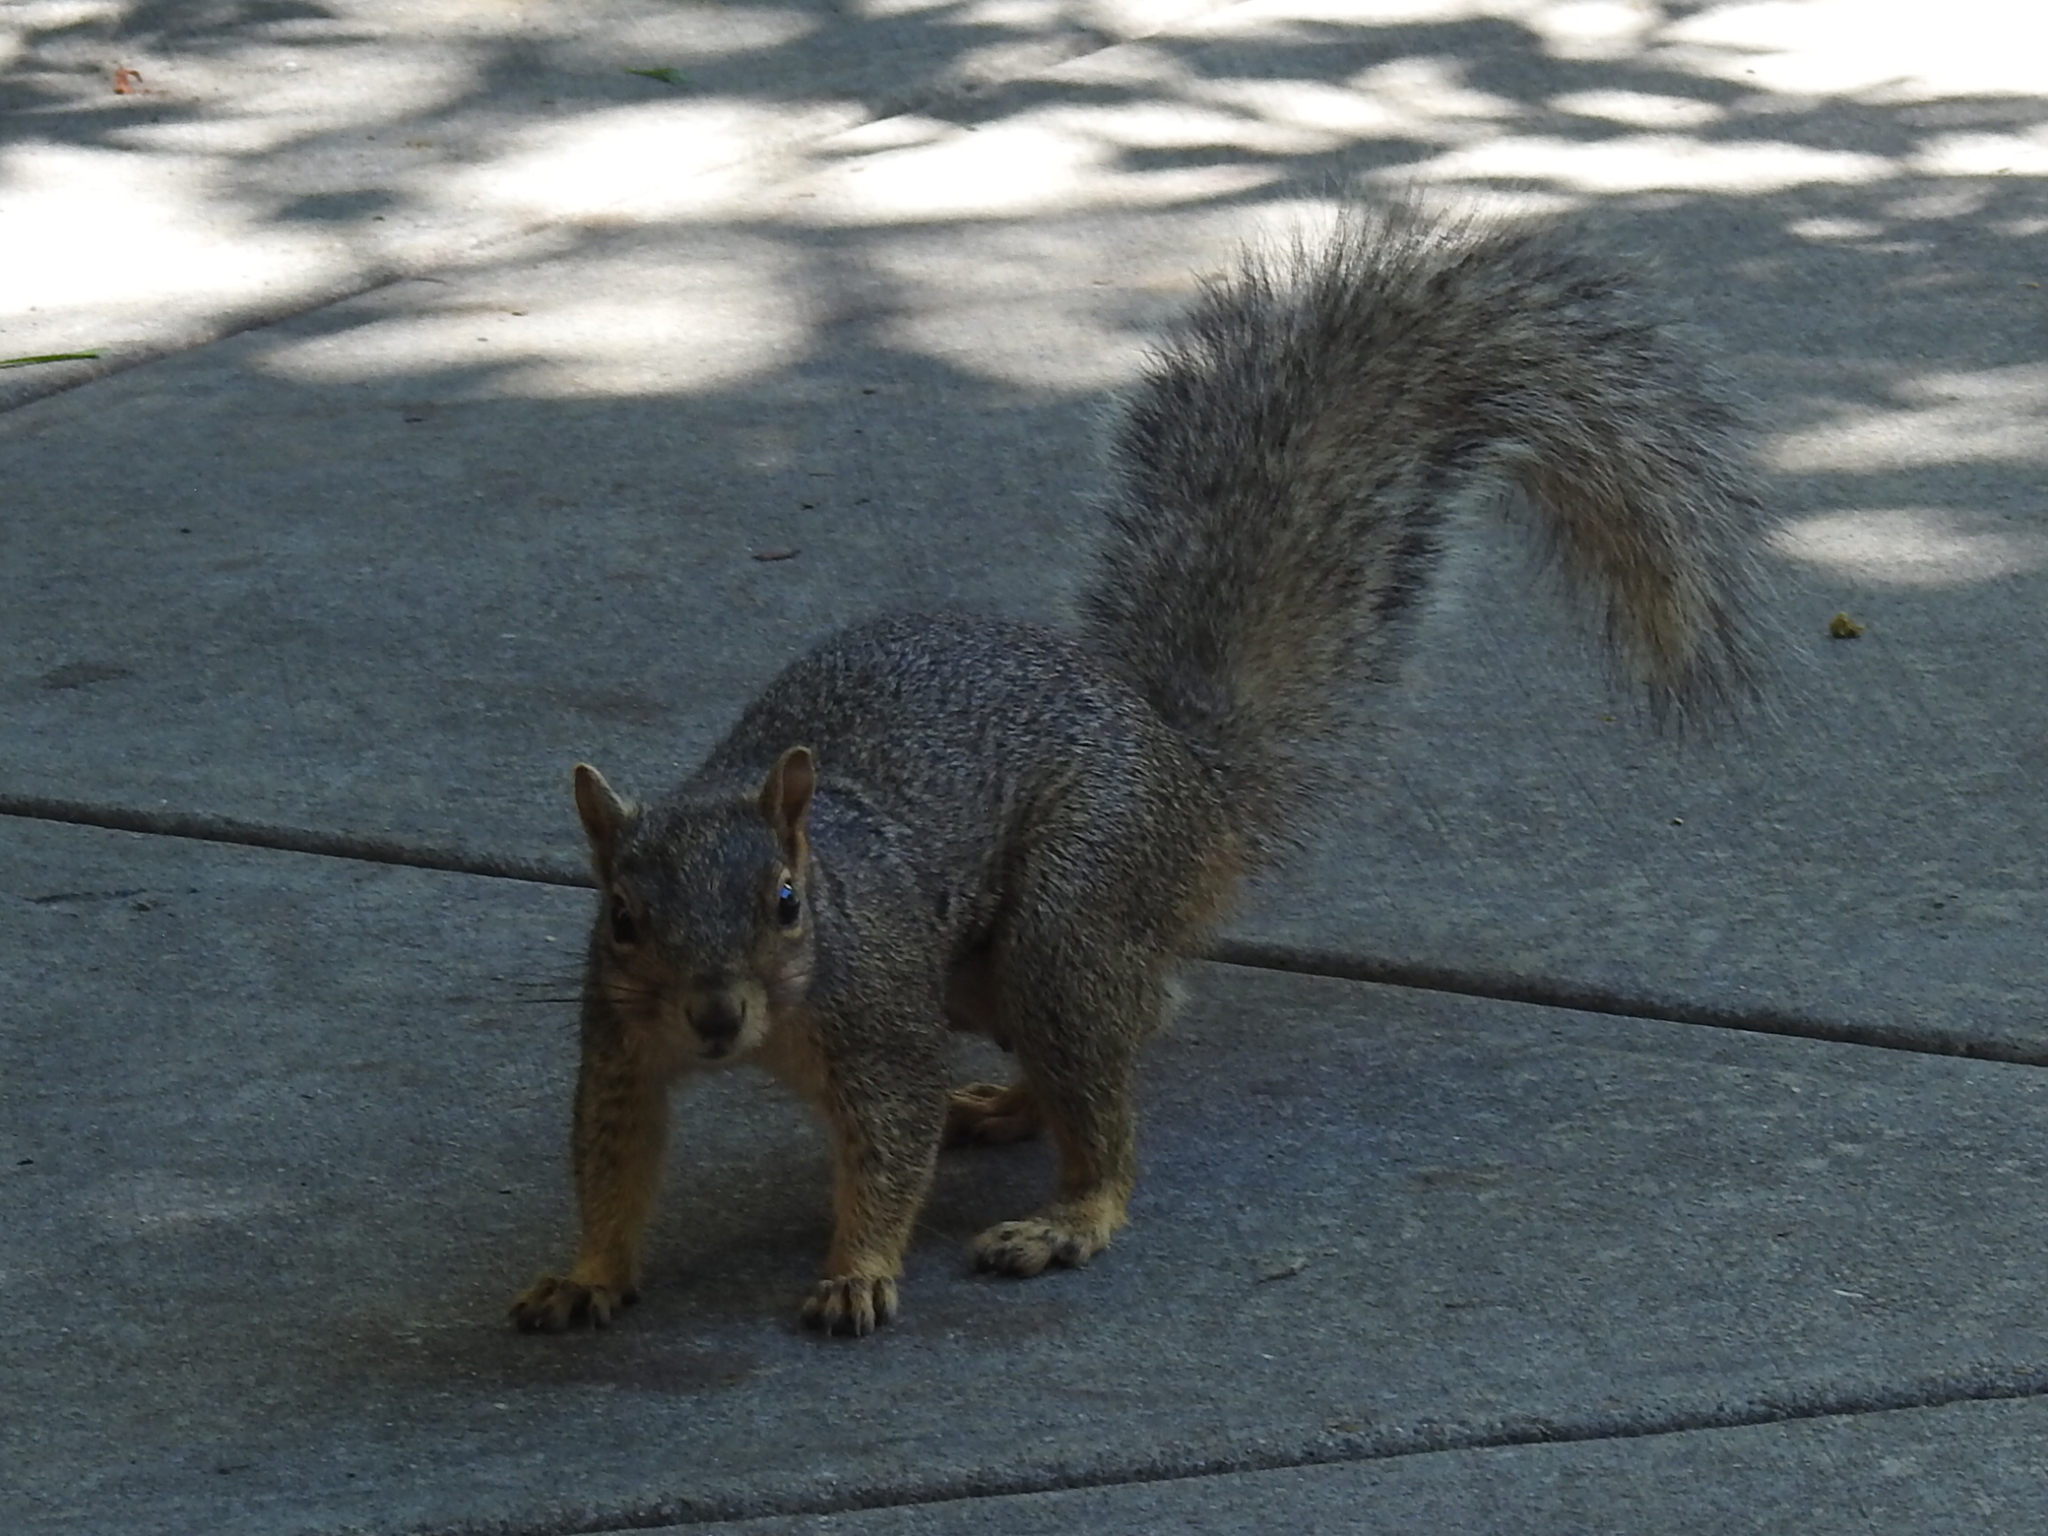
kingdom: Animalia
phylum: Chordata
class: Mammalia
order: Rodentia
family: Sciuridae
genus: Sciurus
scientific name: Sciurus niger
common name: Fox squirrel
